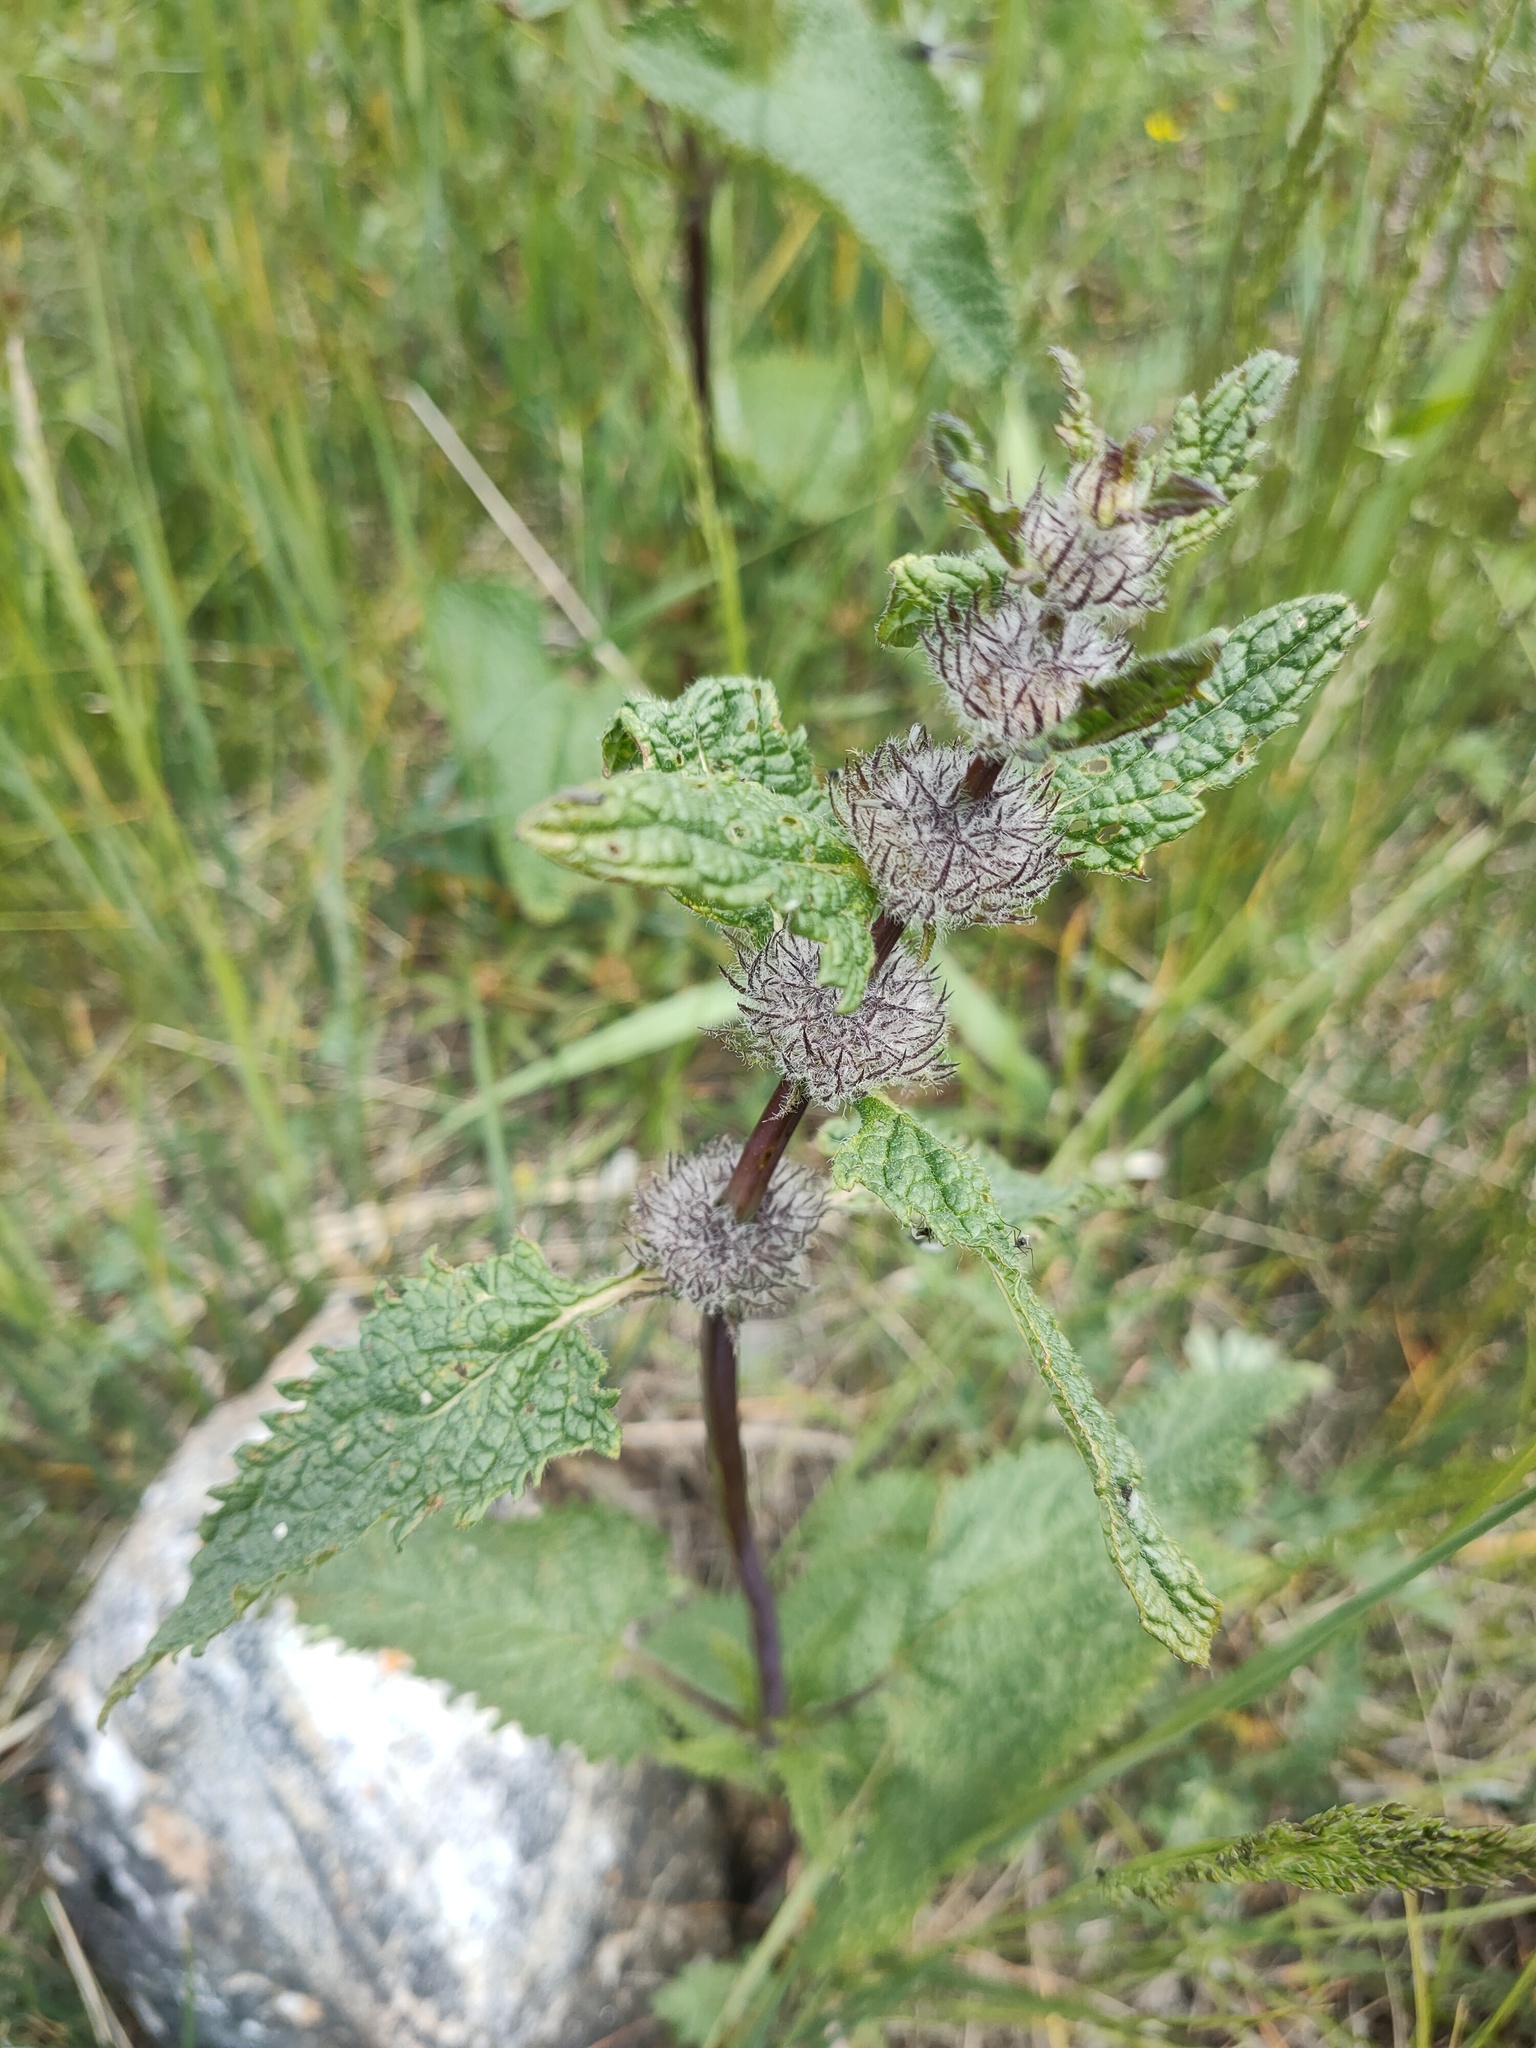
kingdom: Plantae
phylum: Tracheophyta
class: Magnoliopsida
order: Lamiales
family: Lamiaceae
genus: Phlomoides
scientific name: Phlomoides tuberosa
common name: Tuberous jerusalem sage
